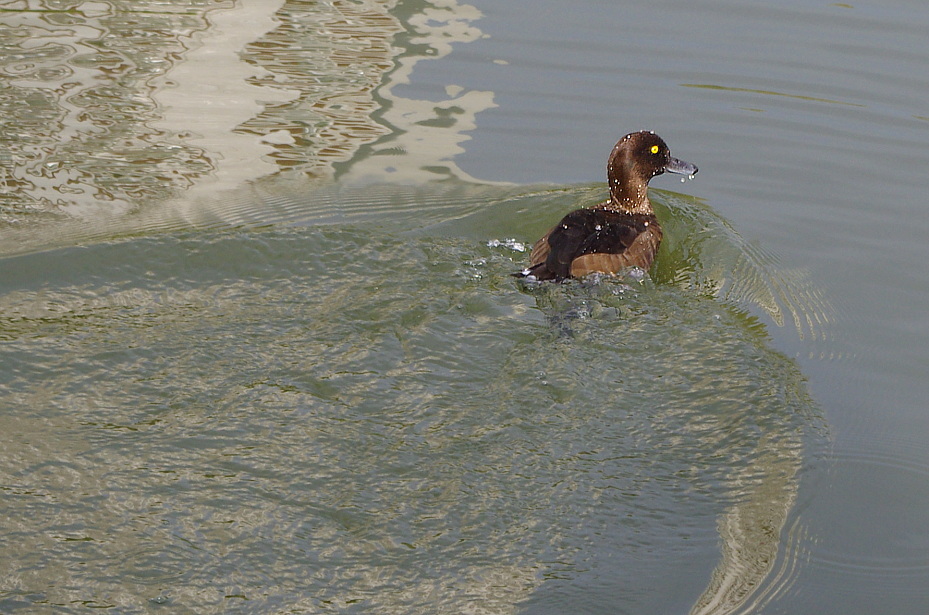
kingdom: Animalia
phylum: Chordata
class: Aves
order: Anseriformes
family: Anatidae
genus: Aythya
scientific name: Aythya fuligula
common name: Tufted duck
